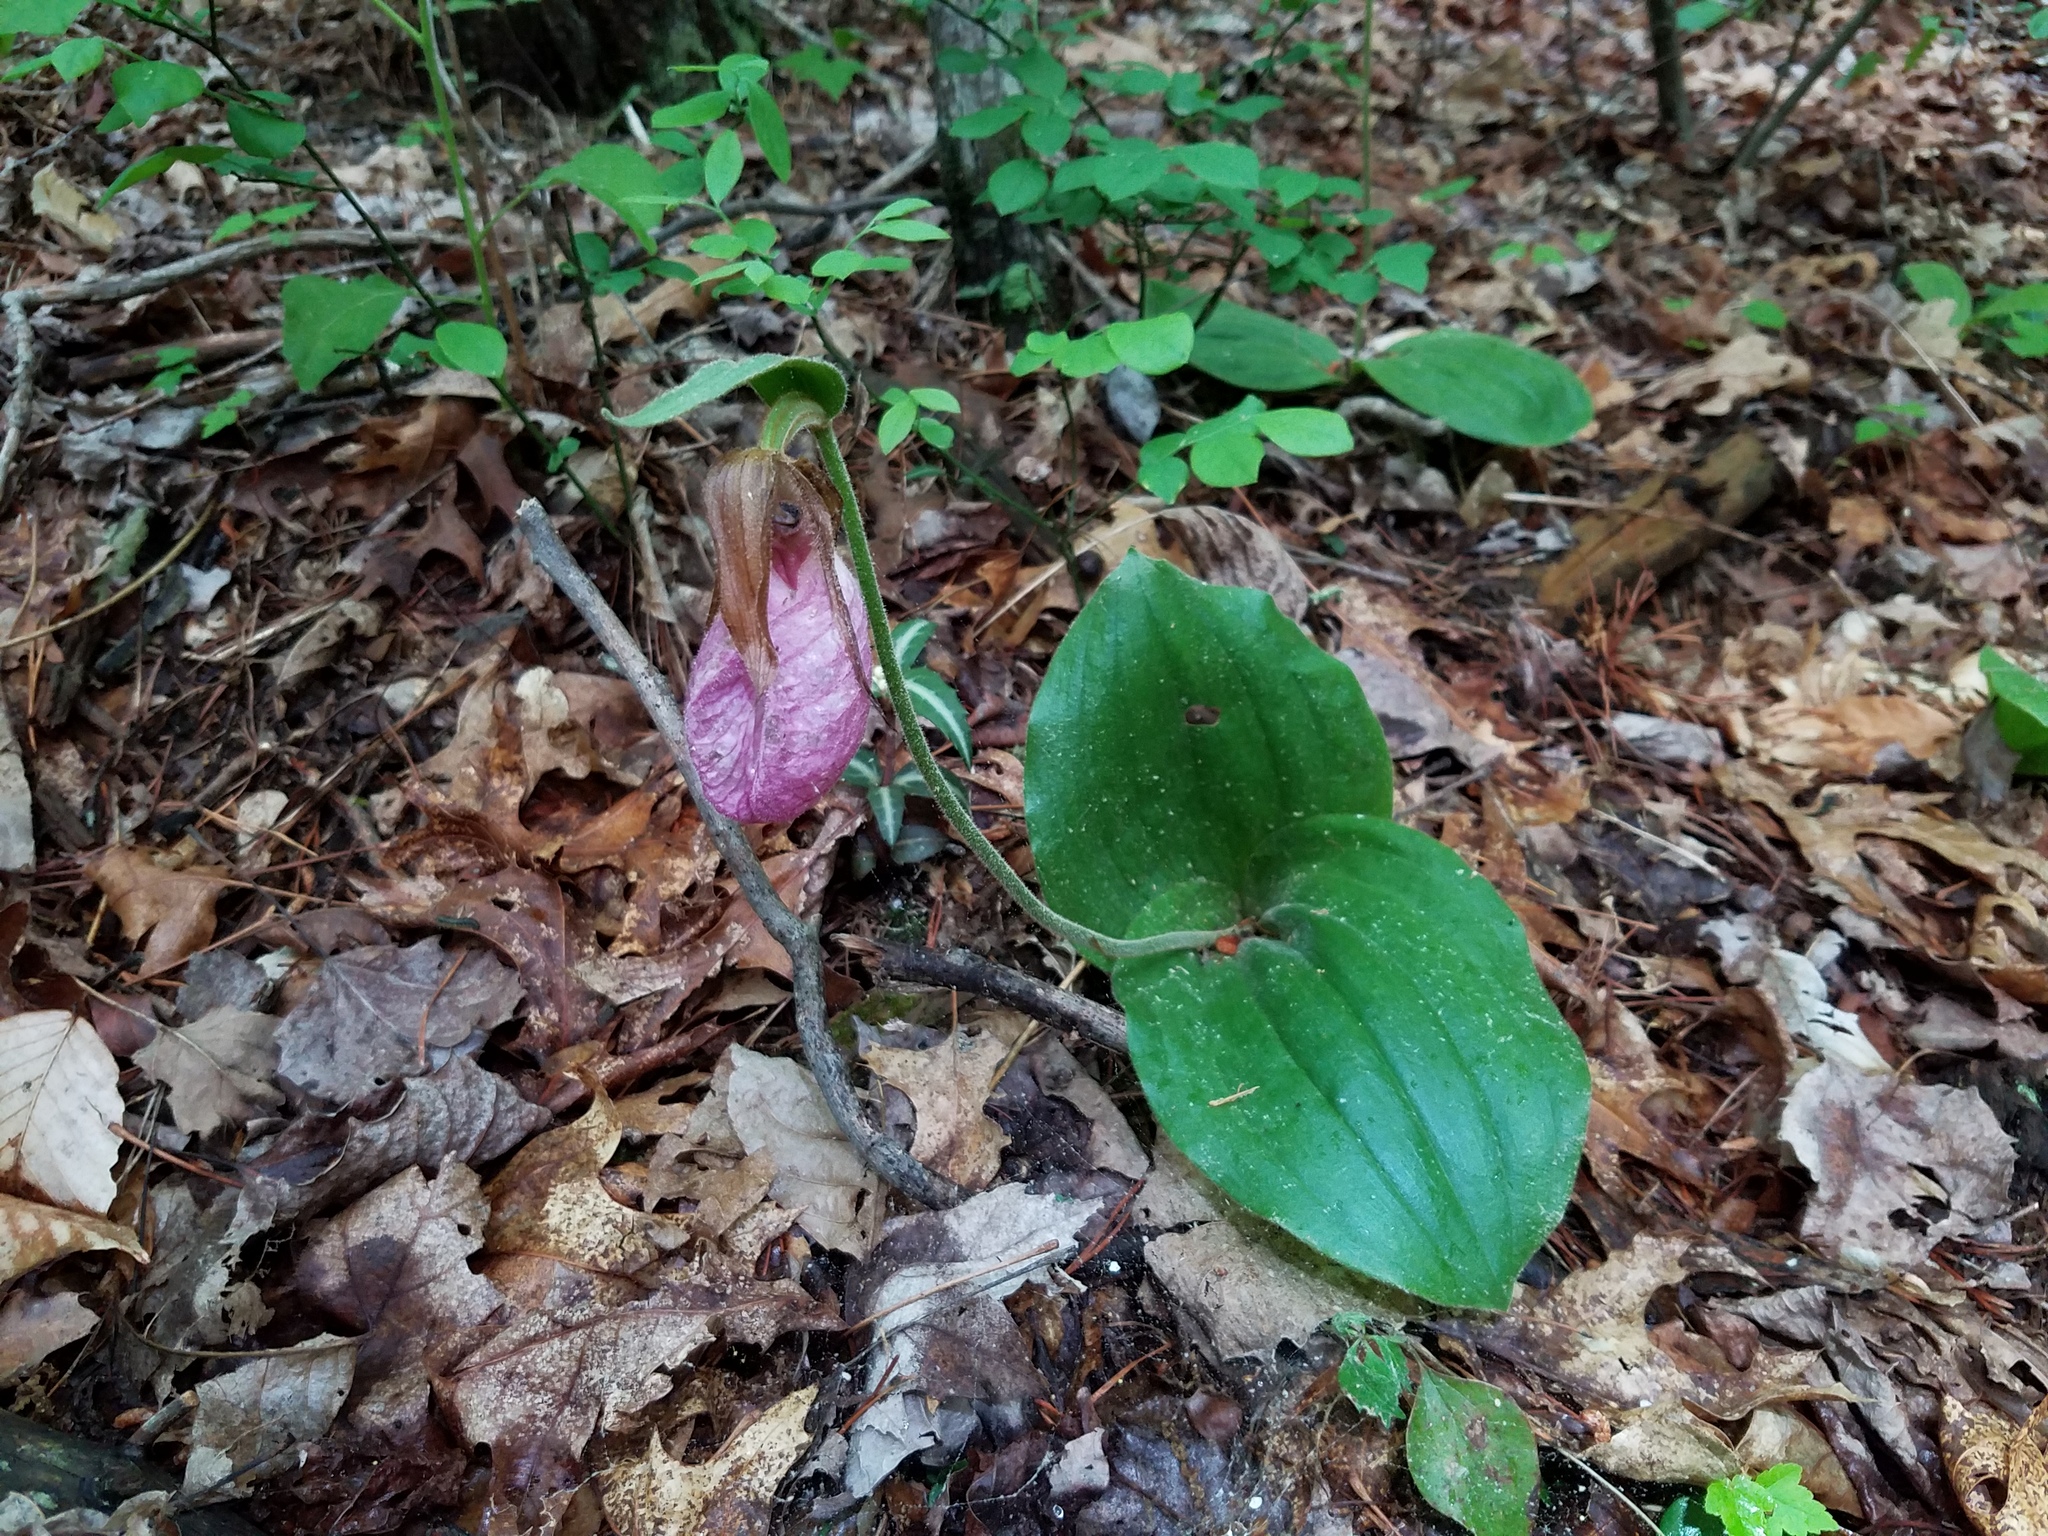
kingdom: Plantae
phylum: Tracheophyta
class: Liliopsida
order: Asparagales
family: Orchidaceae
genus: Cypripedium
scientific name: Cypripedium acaule
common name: Pink lady's-slipper
